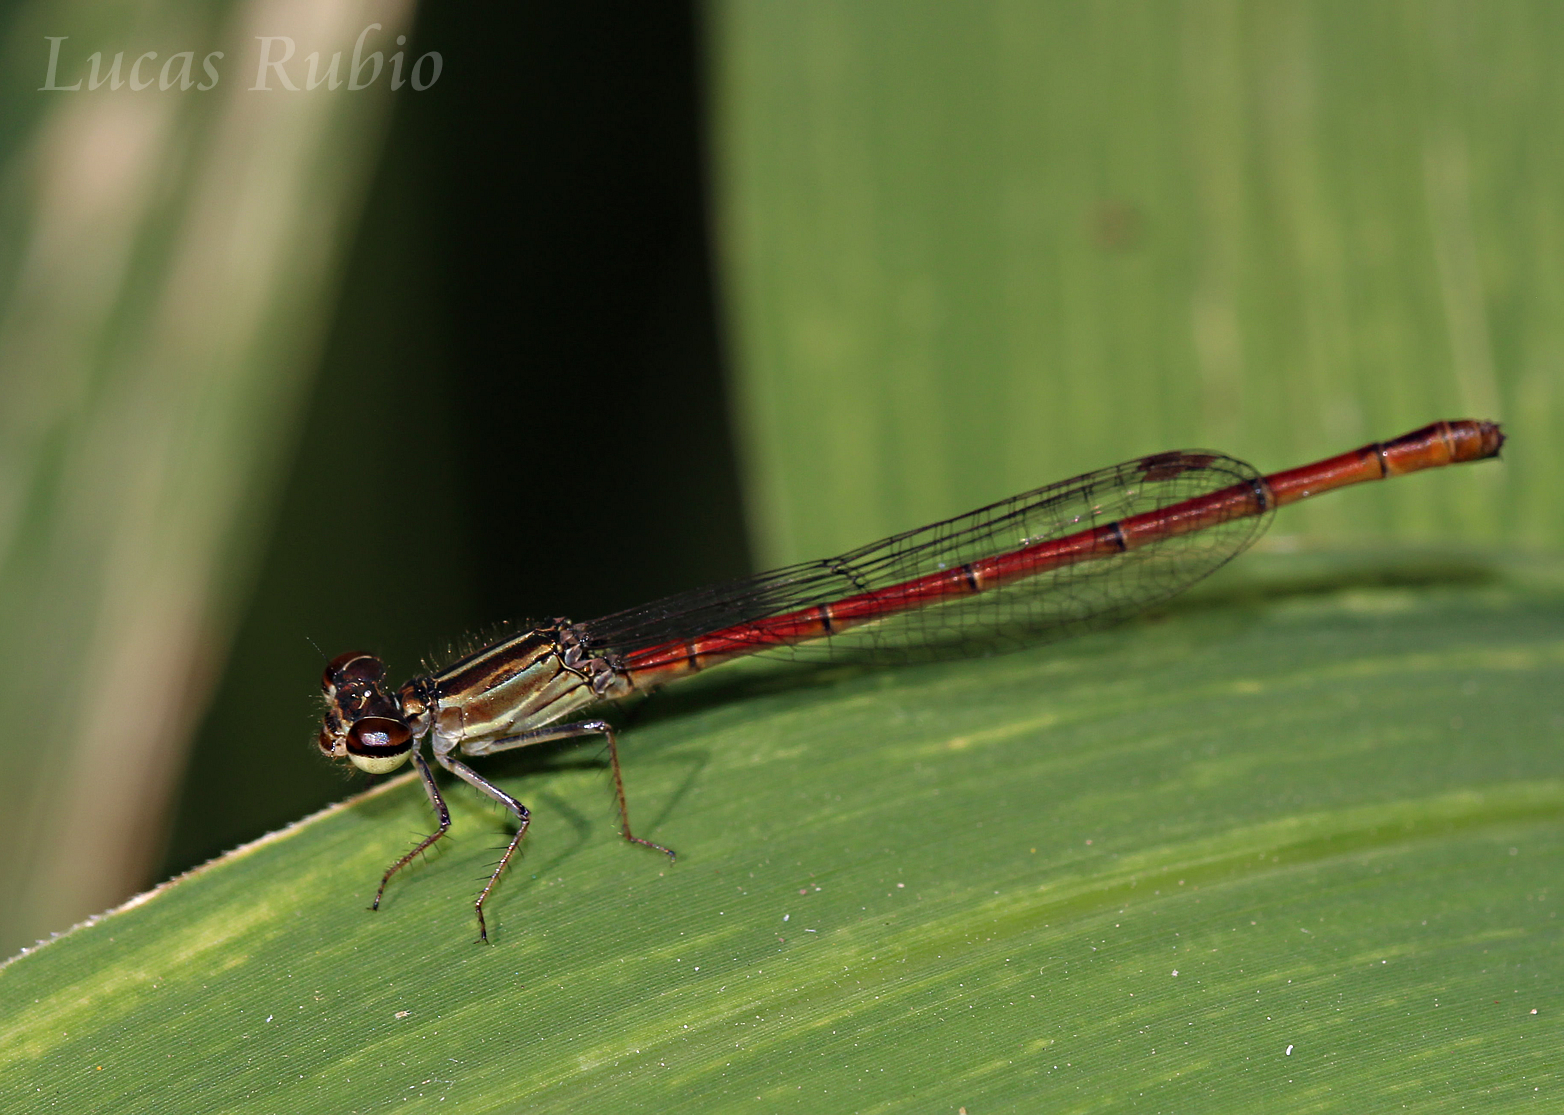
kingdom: Animalia
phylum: Arthropoda
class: Insecta
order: Odonata
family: Coenagrionidae
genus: Telebasis
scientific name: Telebasis willinki
